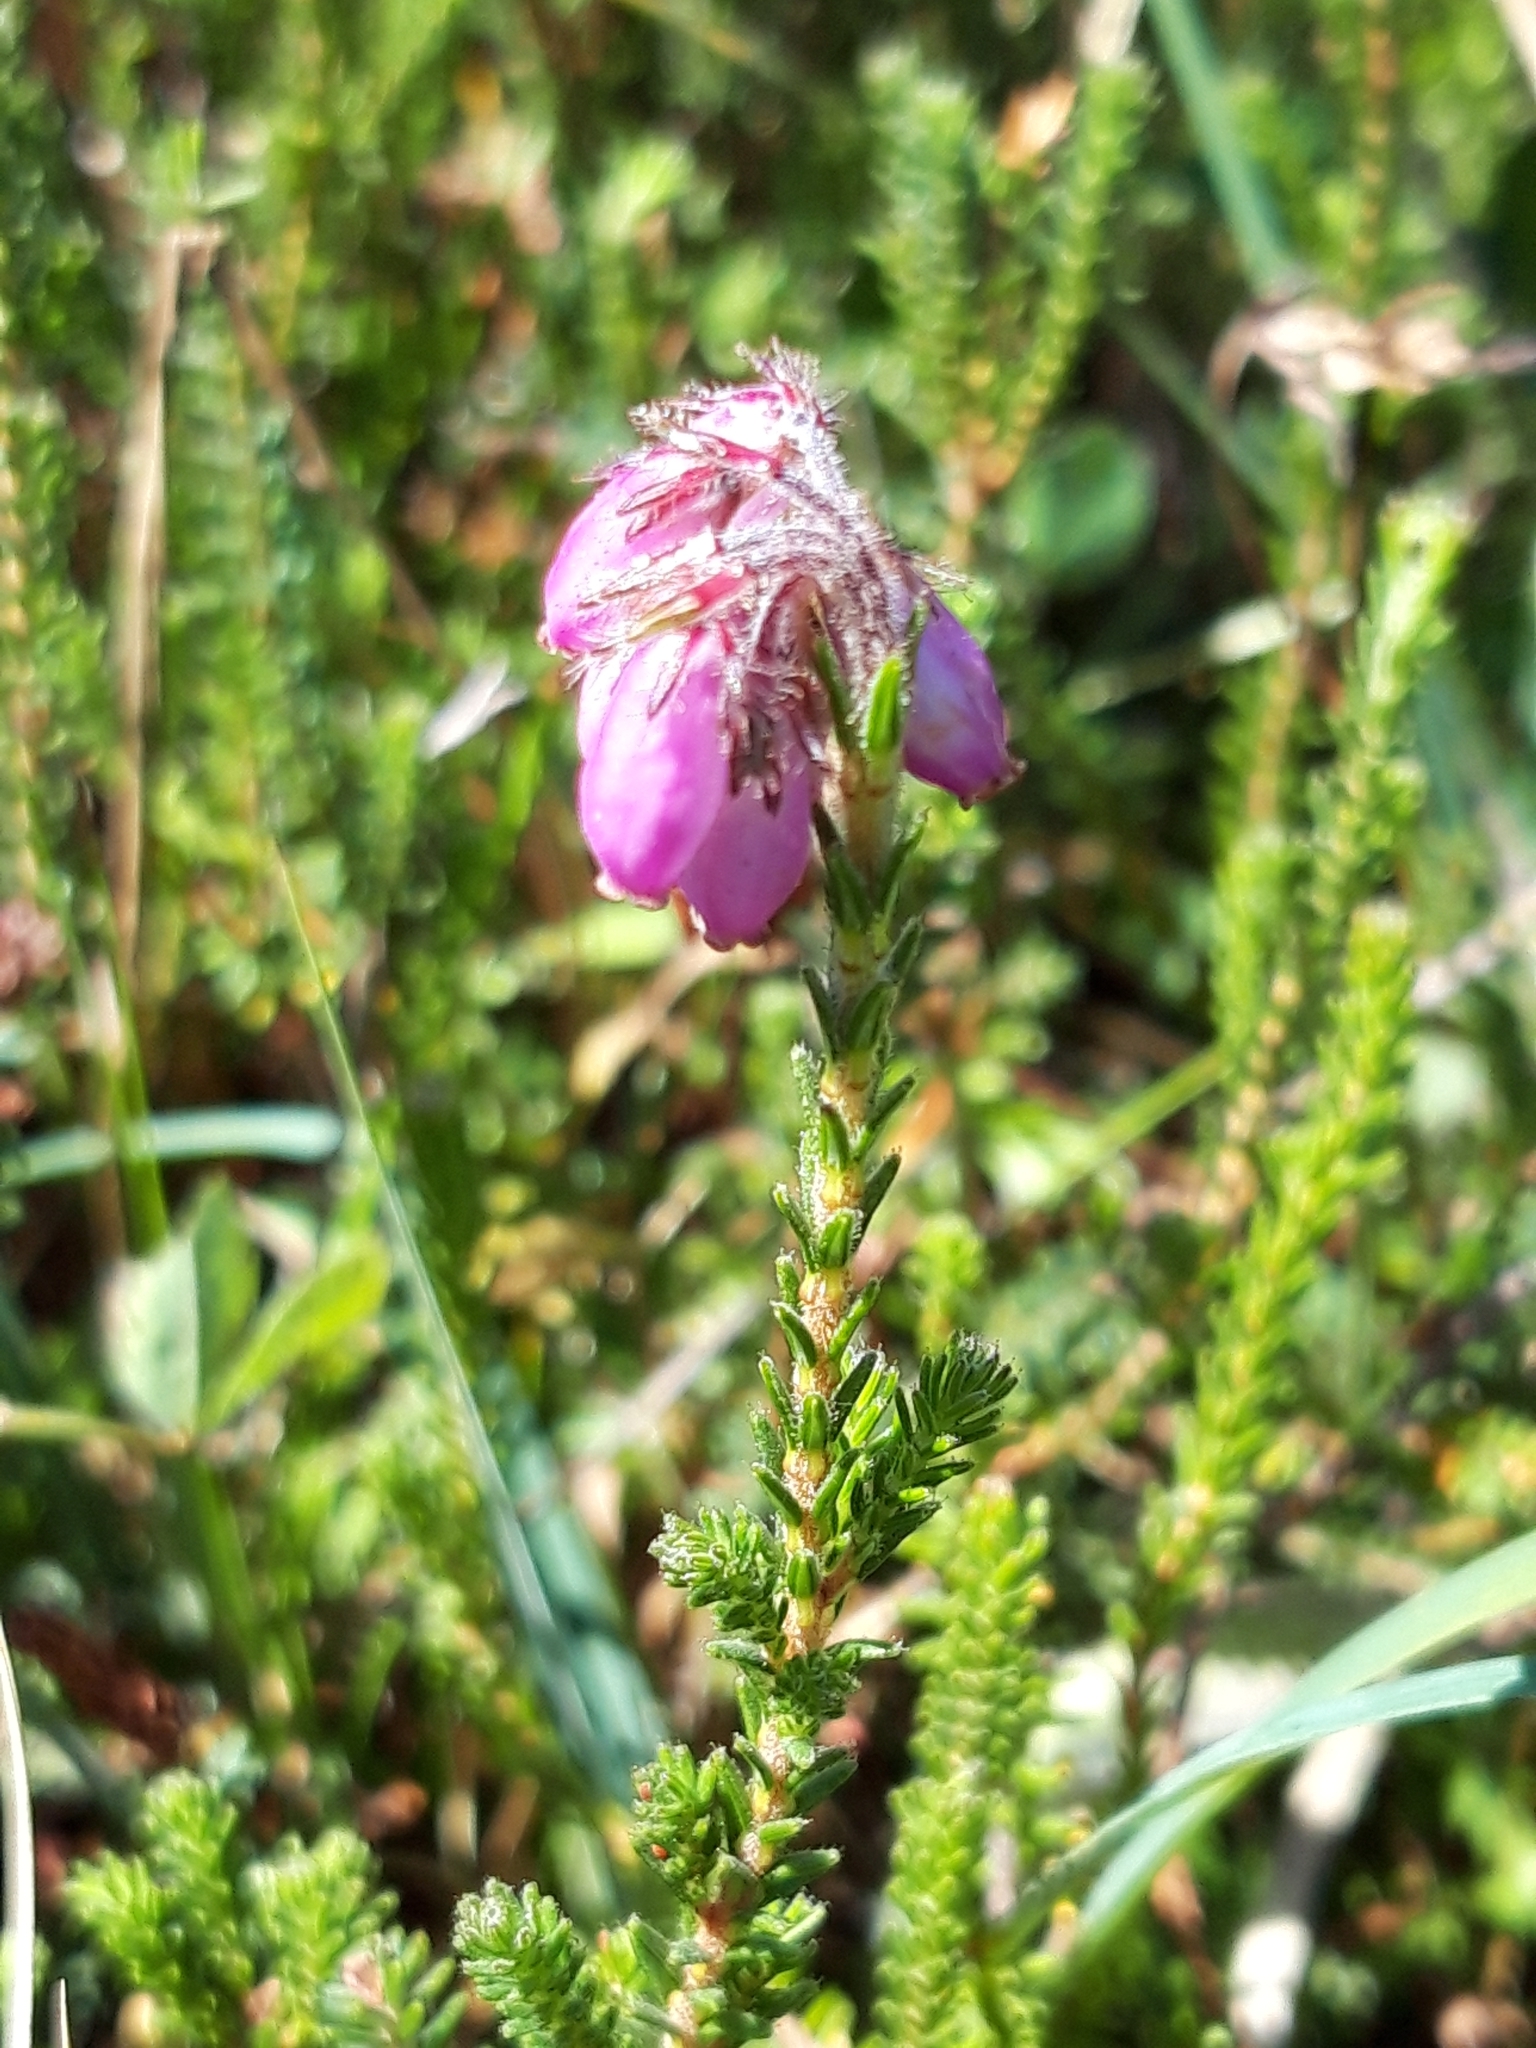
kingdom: Plantae
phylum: Tracheophyta
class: Magnoliopsida
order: Ericales
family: Ericaceae
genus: Erica
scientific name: Erica tetralix
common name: Cross-leaved heath
